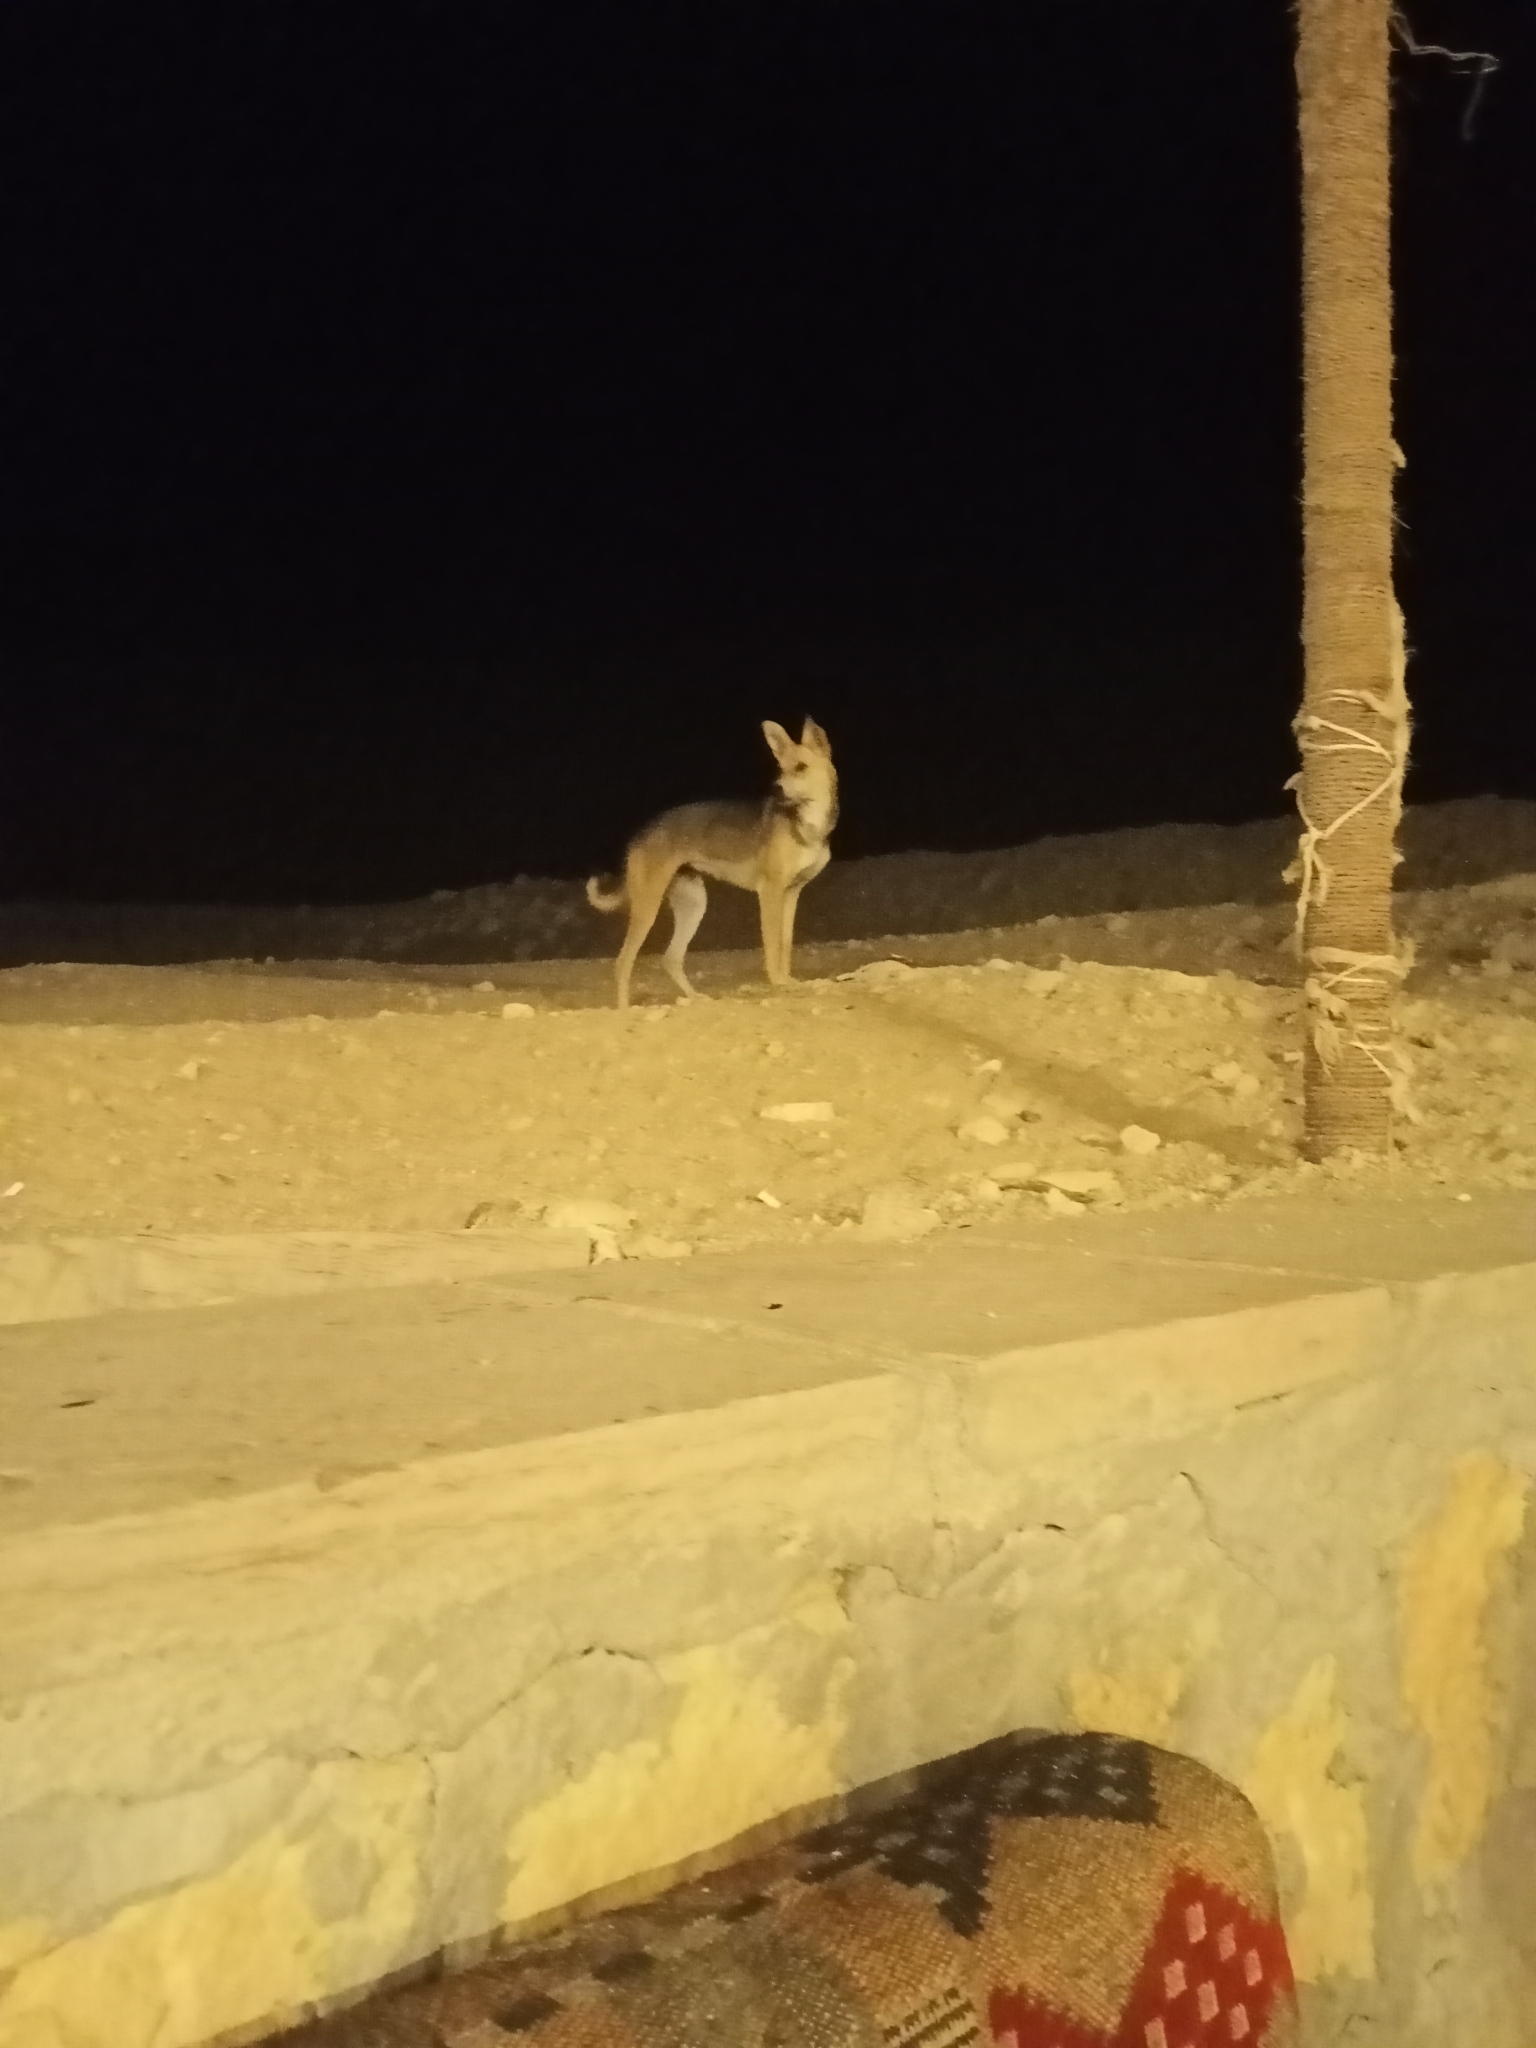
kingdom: Animalia
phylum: Chordata
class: Mammalia
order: Carnivora
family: Canidae
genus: Canis
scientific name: Canis lupus
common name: Gray wolf
